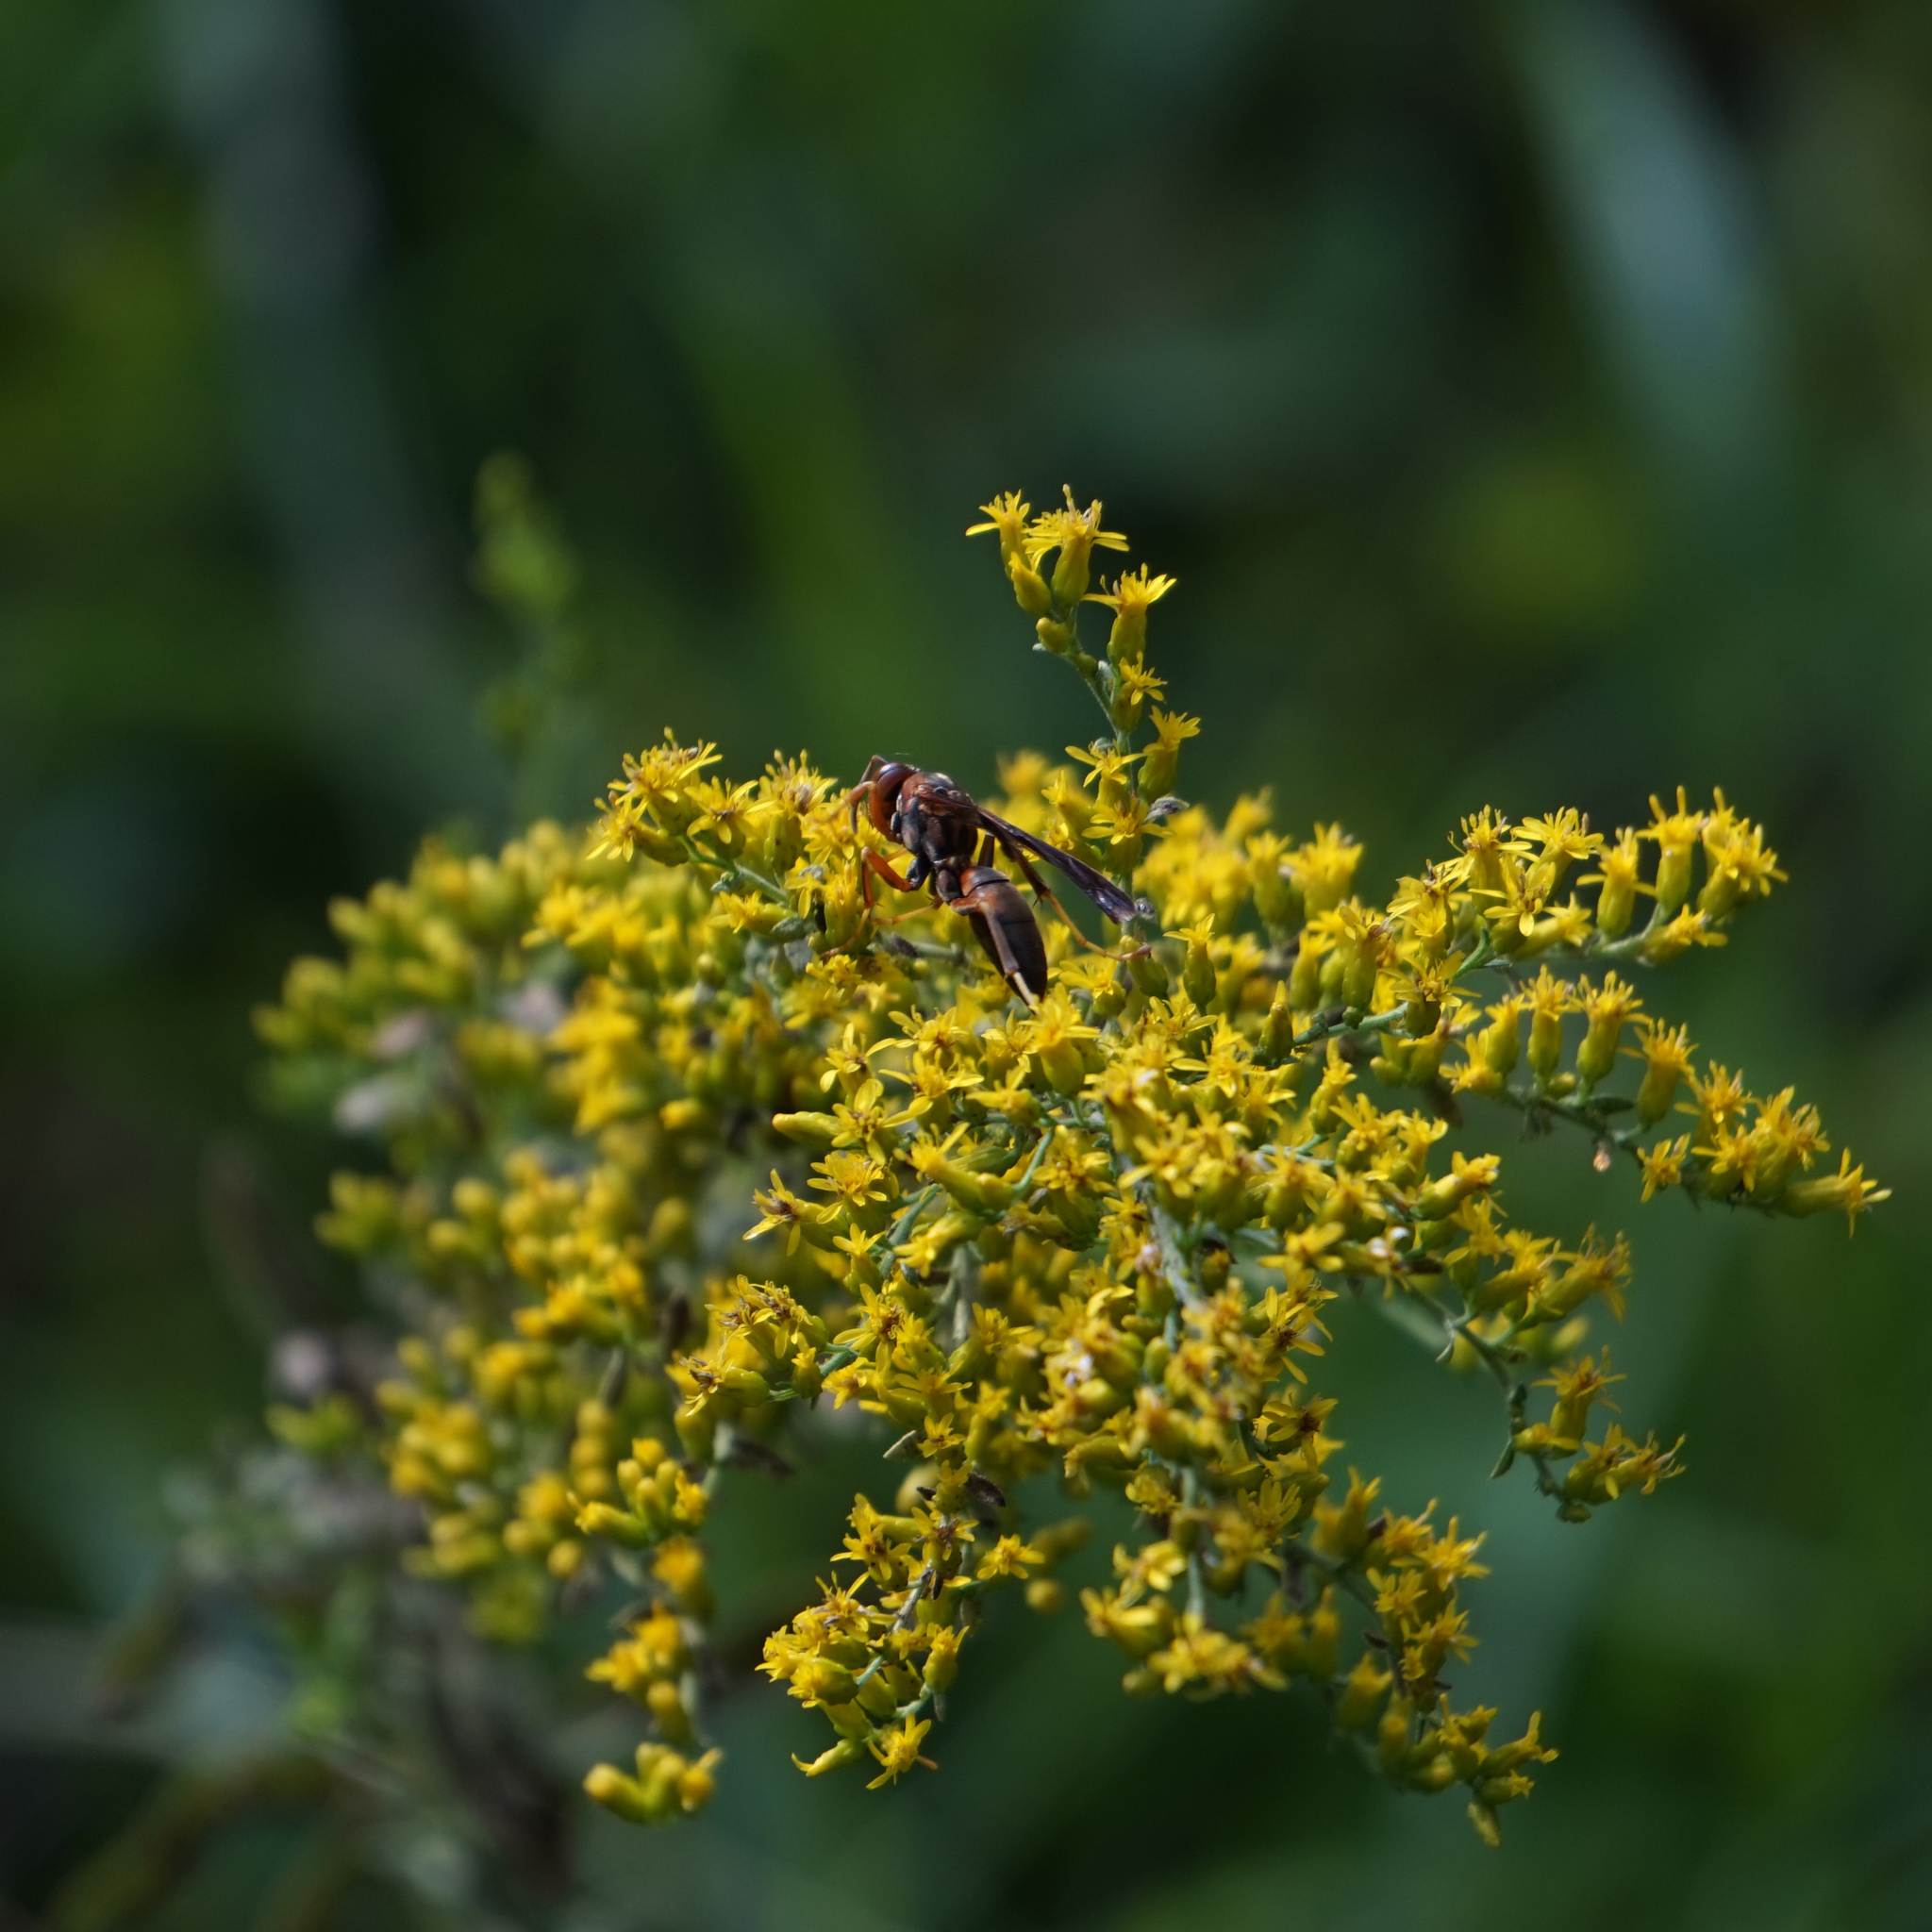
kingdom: Animalia
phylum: Arthropoda
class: Insecta
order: Hymenoptera
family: Eumenidae
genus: Polistes
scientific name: Polistes metricus
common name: Metric paper wasp
